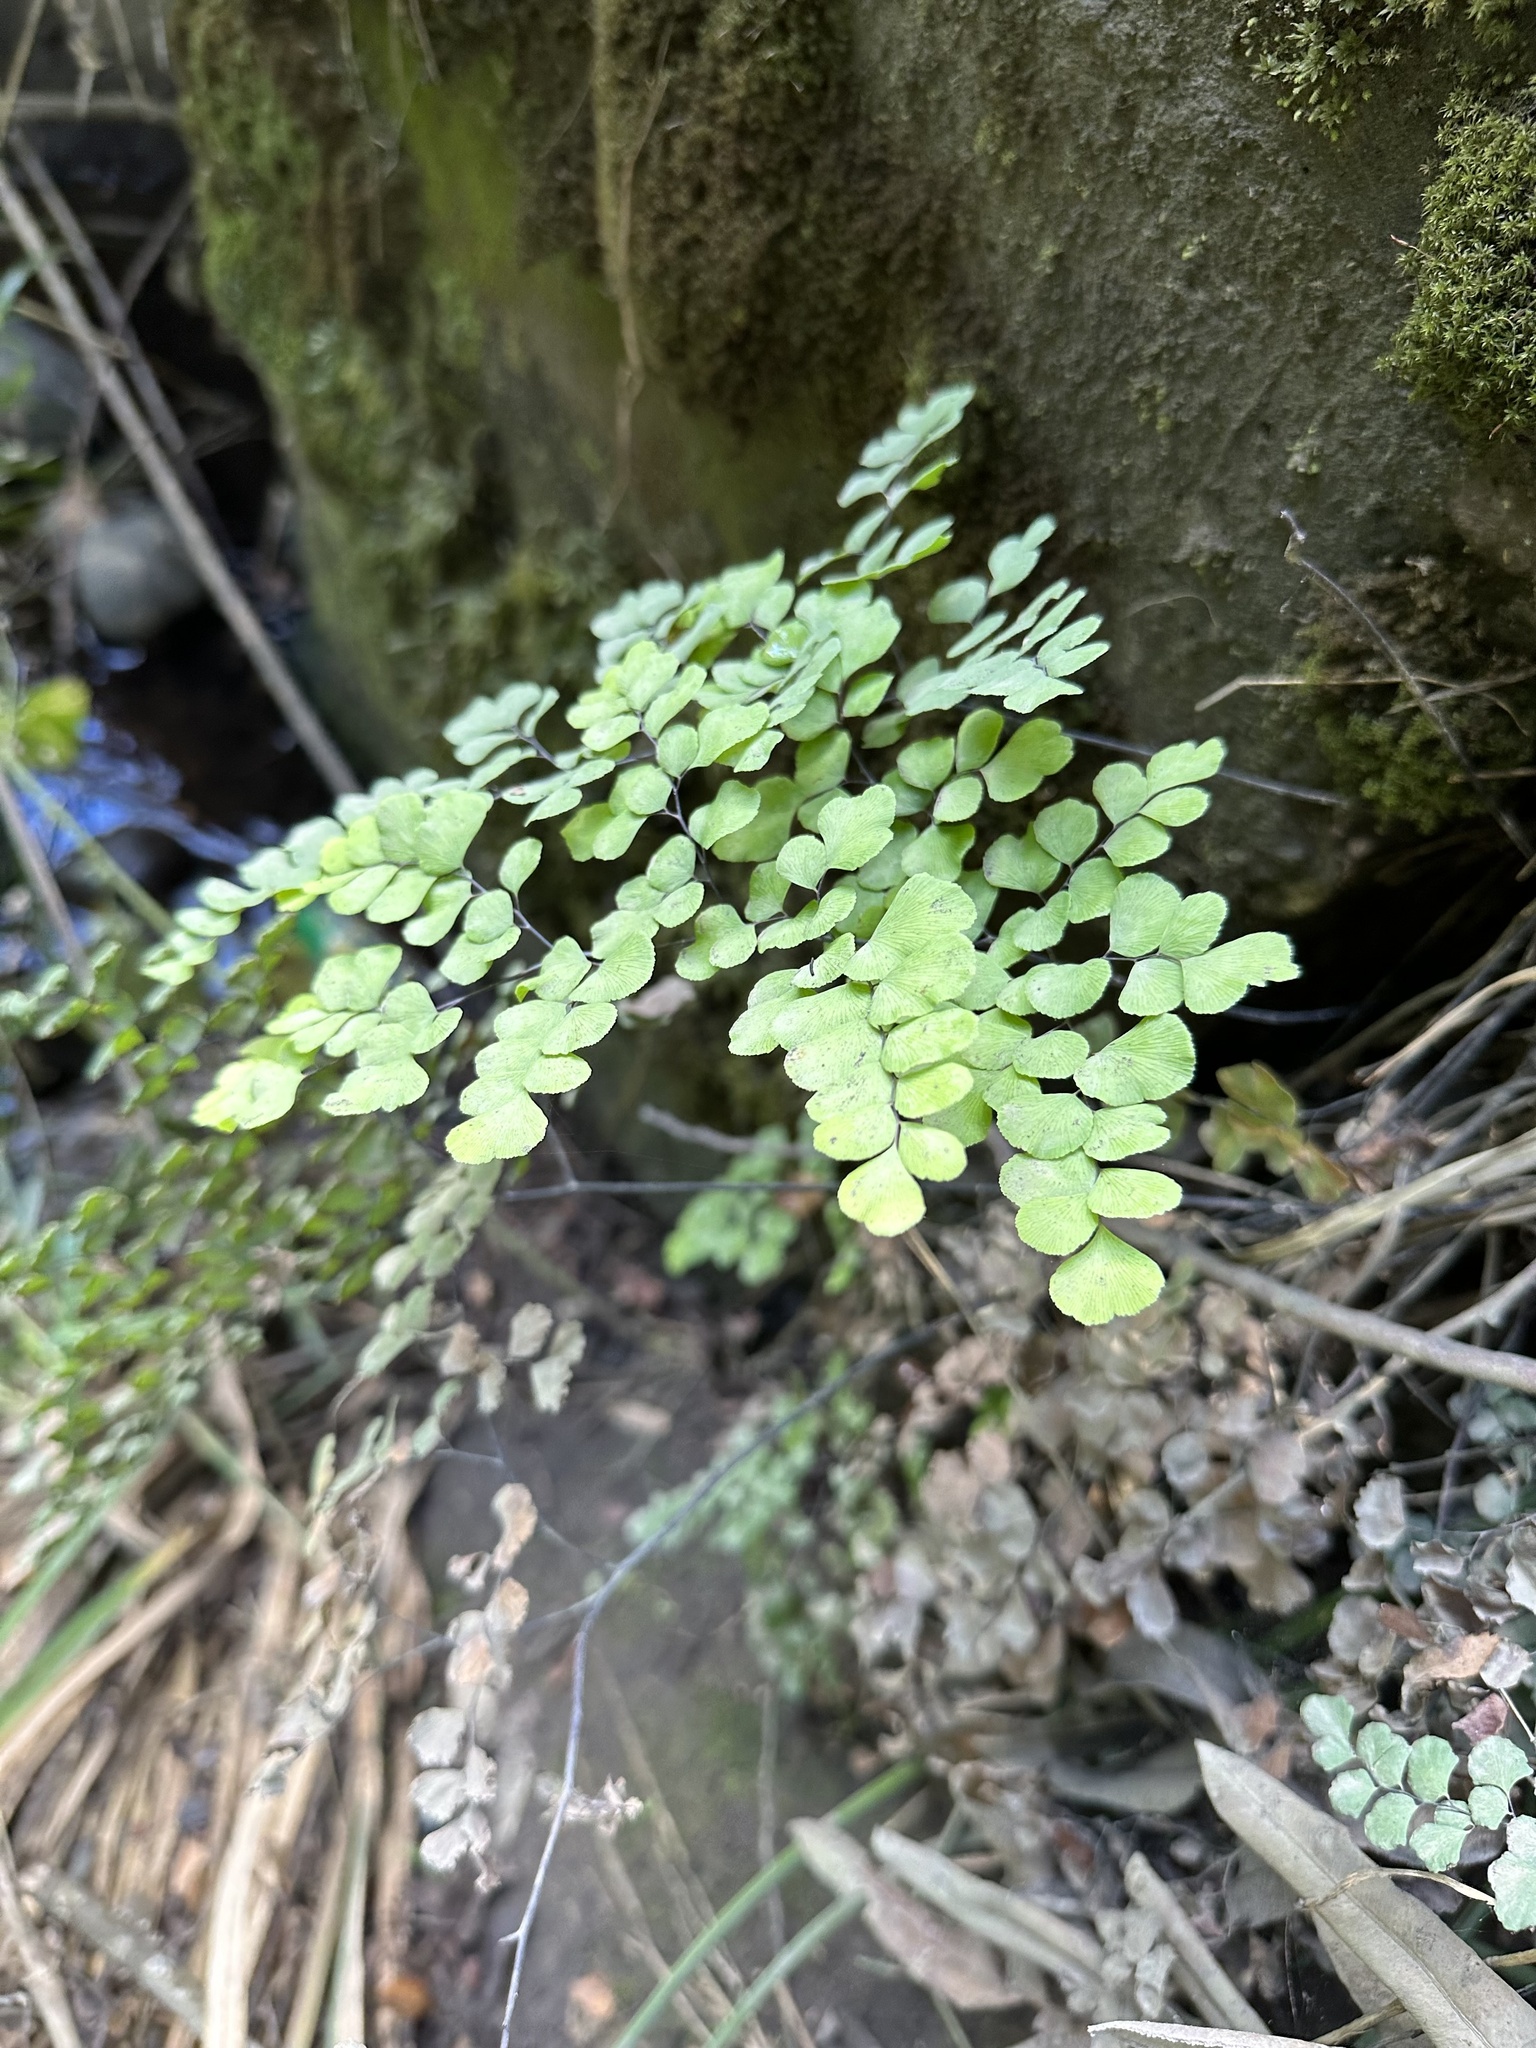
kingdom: Plantae
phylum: Tracheophyta
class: Polypodiopsida
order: Polypodiales
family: Pteridaceae
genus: Adiantum
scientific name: Adiantum chilense
